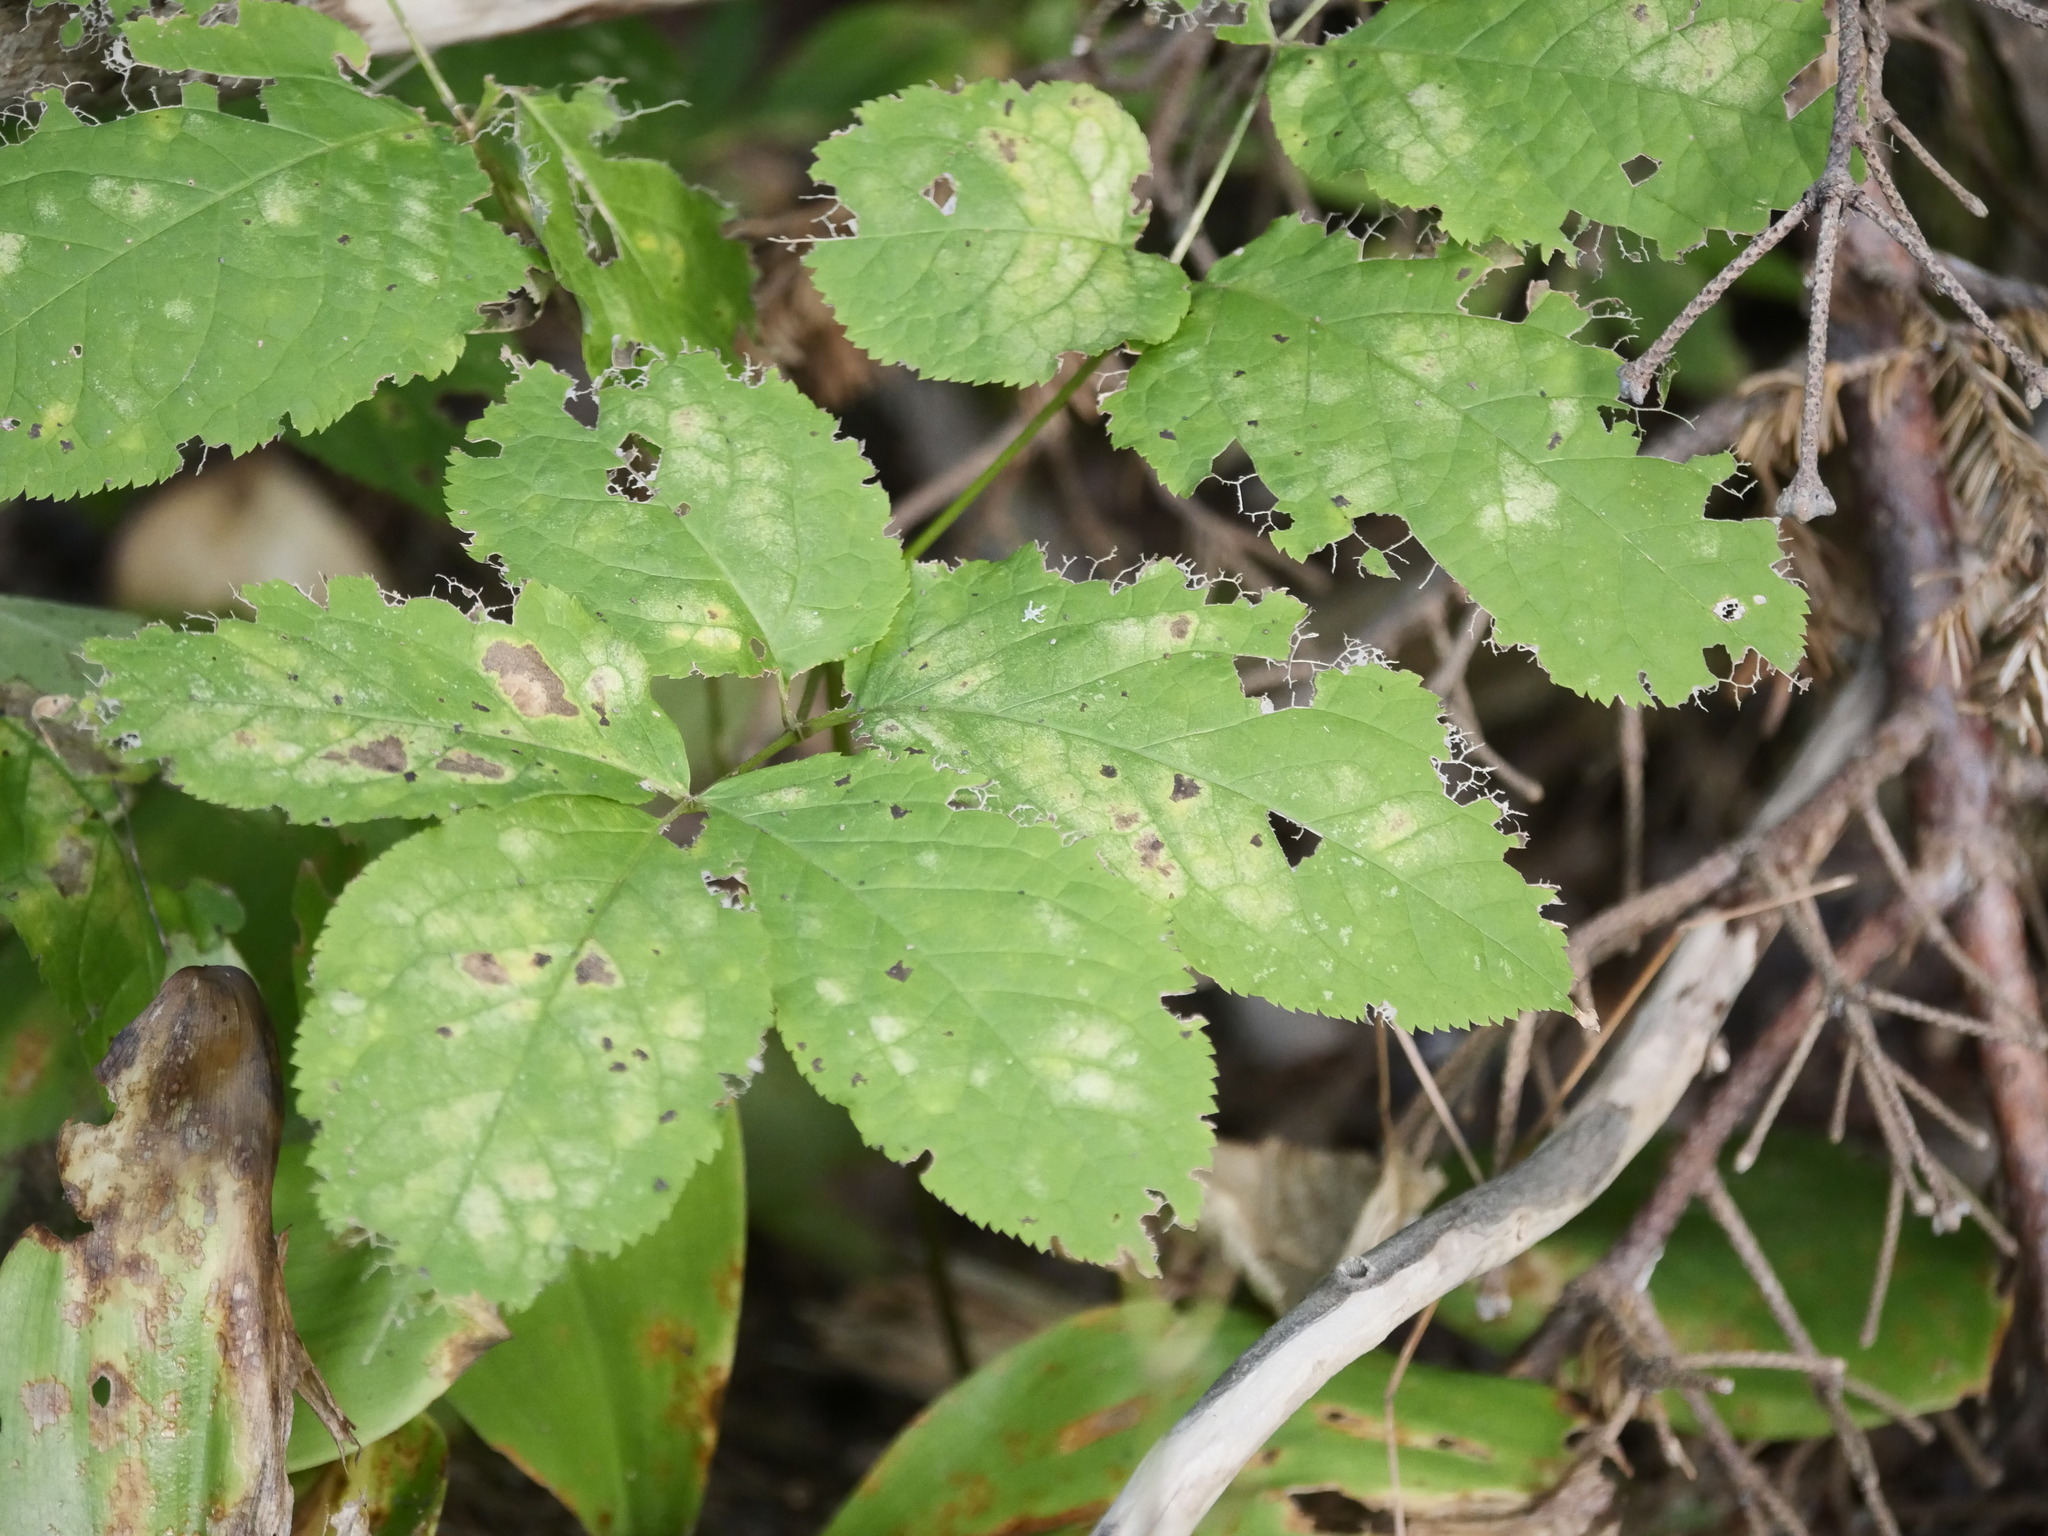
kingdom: Plantae
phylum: Tracheophyta
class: Magnoliopsida
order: Apiales
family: Araliaceae
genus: Aralia
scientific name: Aralia nudicaulis
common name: Wild sarsaparilla
